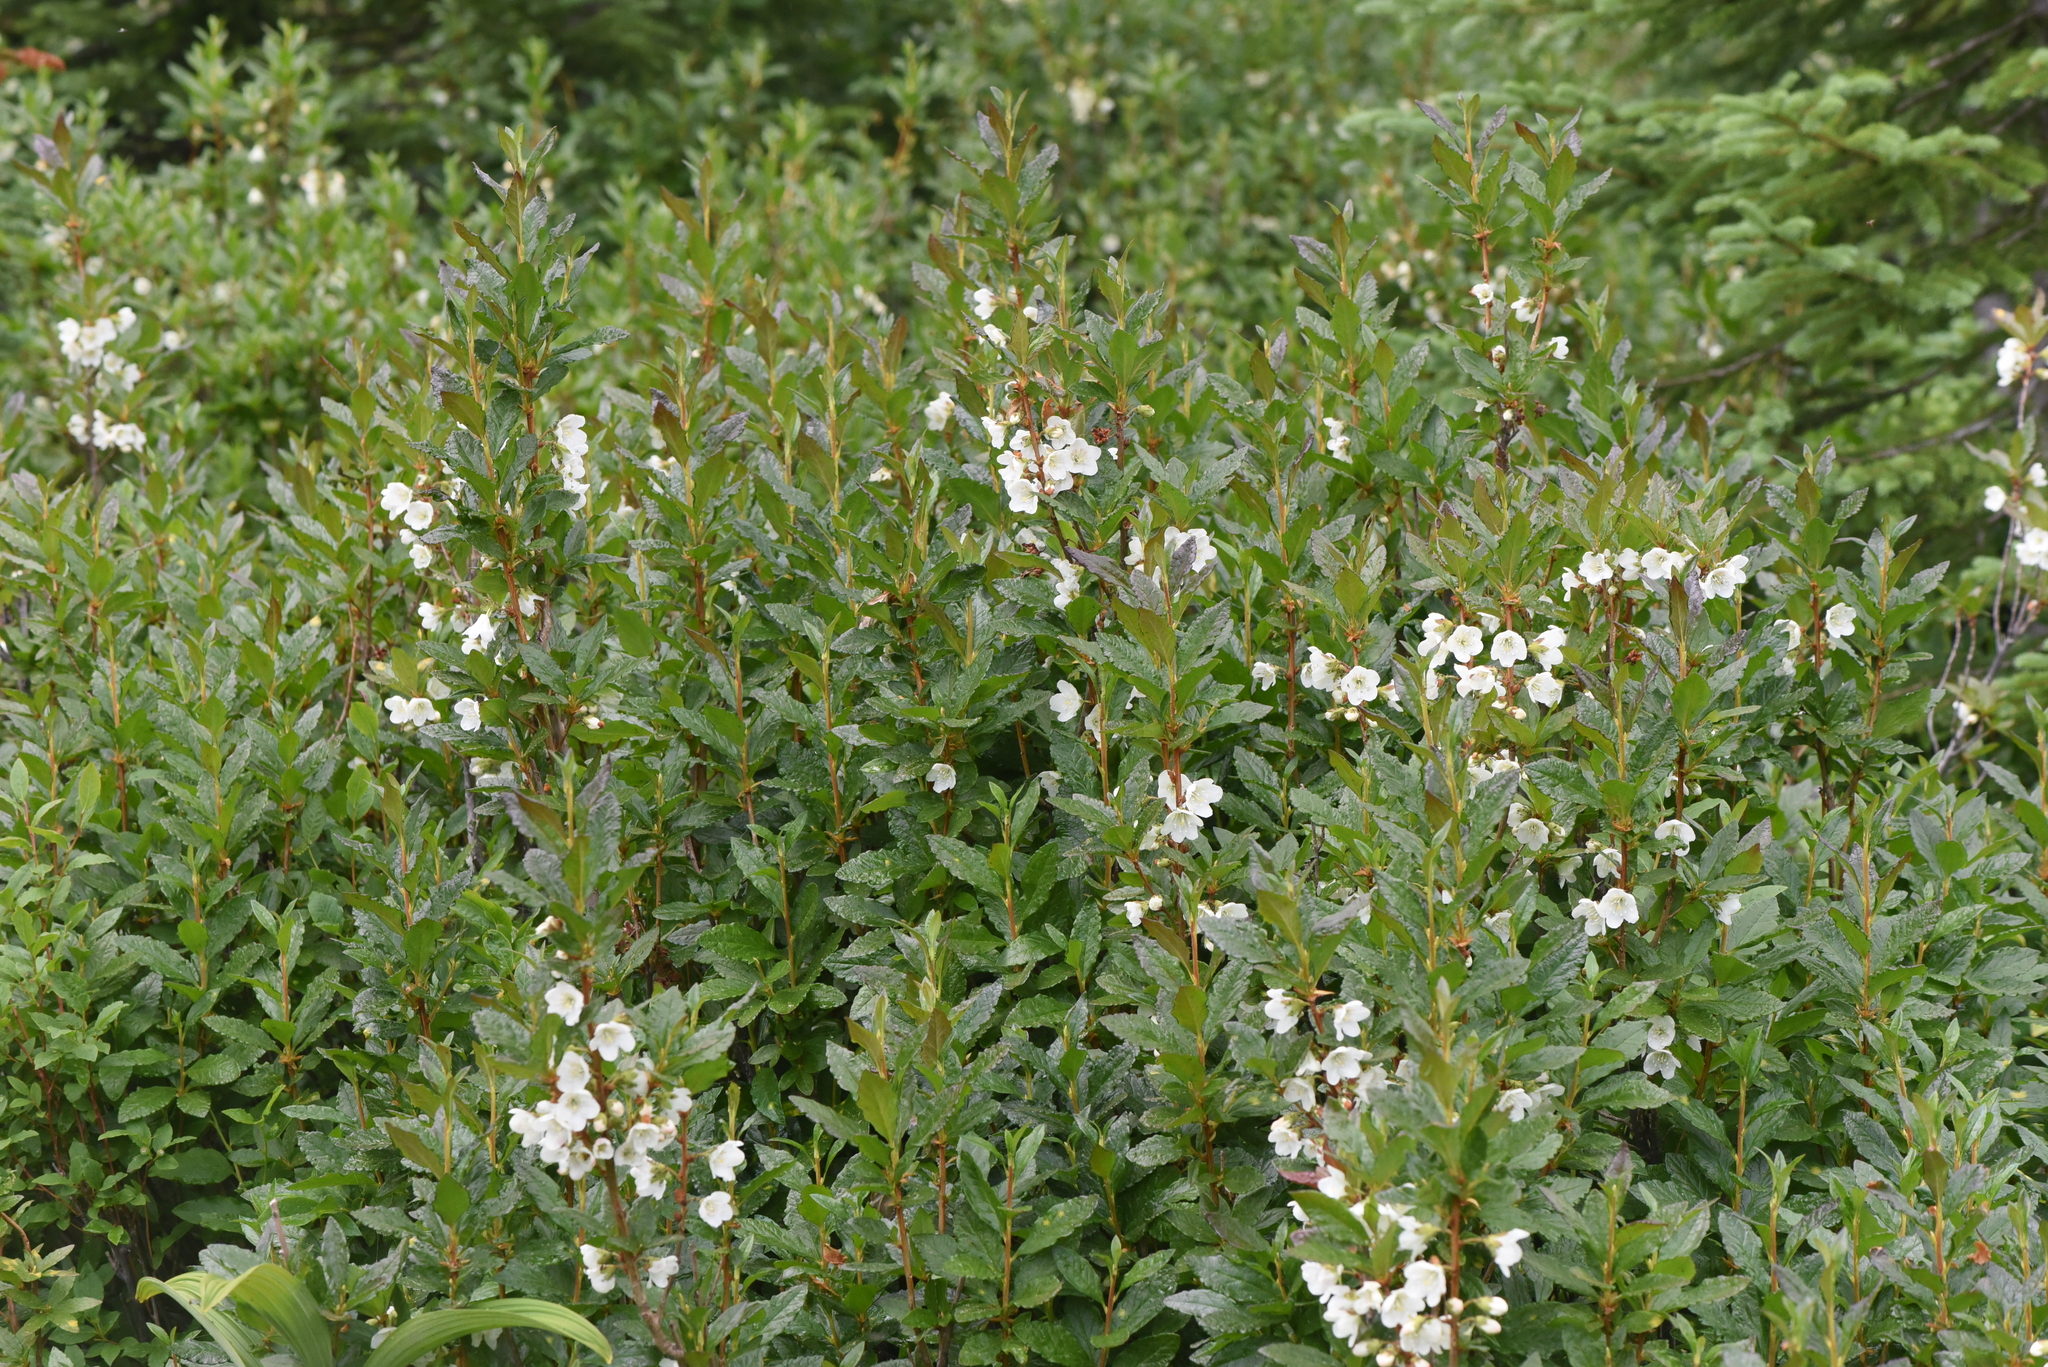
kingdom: Plantae
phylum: Tracheophyta
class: Magnoliopsida
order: Ericales
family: Ericaceae
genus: Rhododendron
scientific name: Rhododendron albiflorum
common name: White rhododendron
